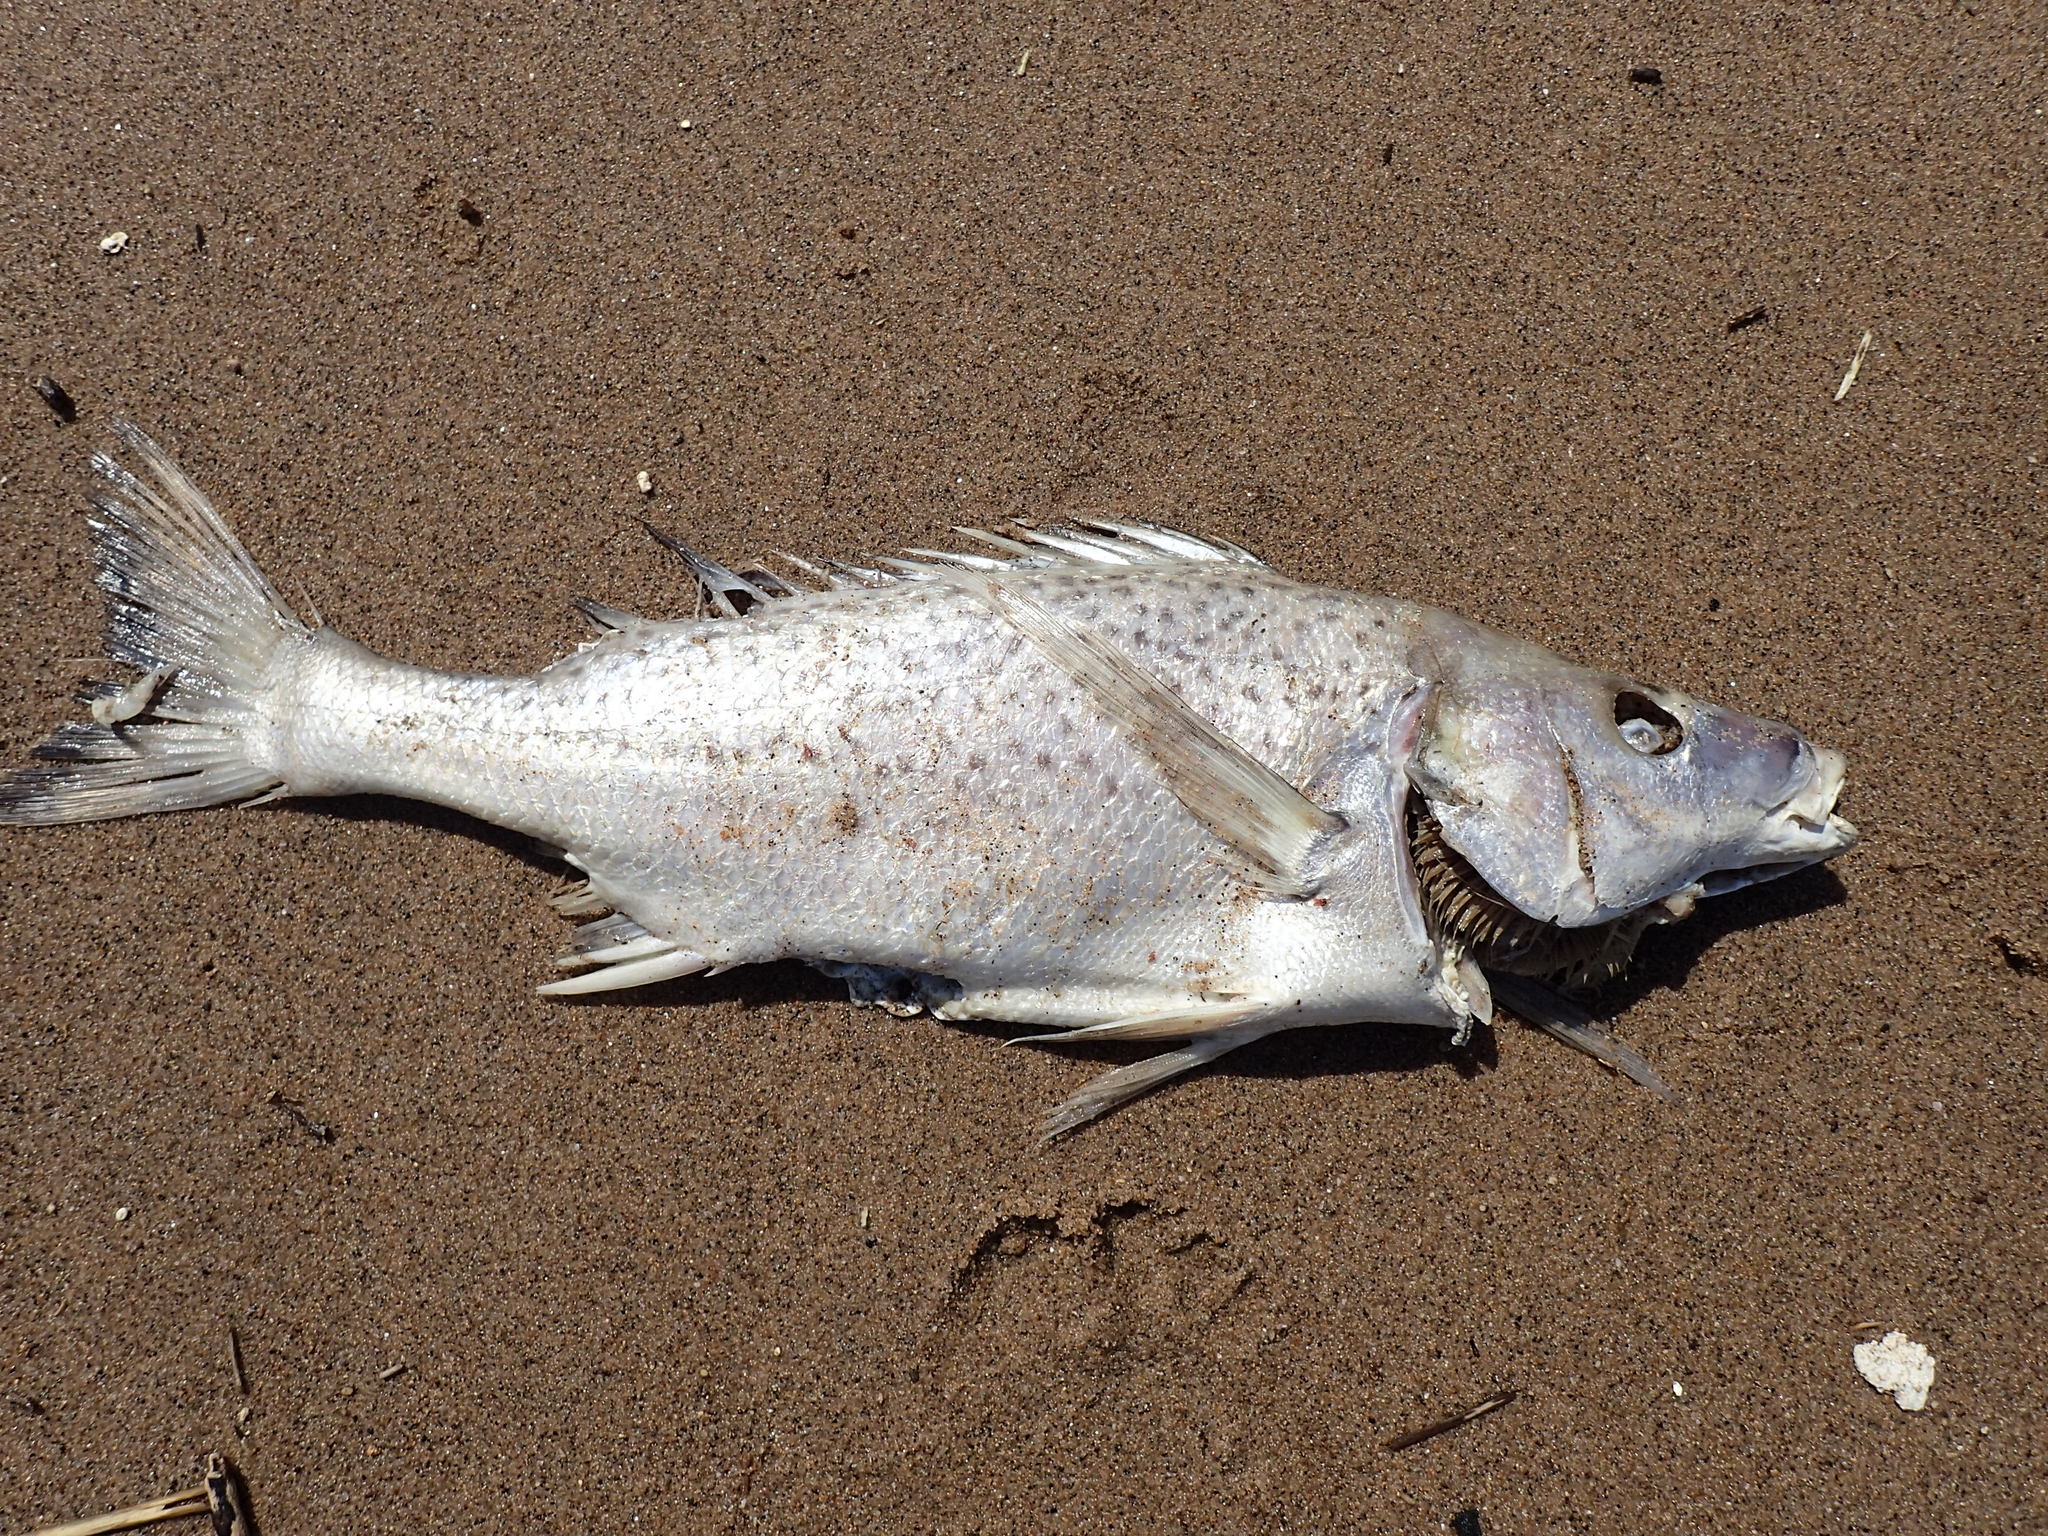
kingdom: Animalia
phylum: Chordata
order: Perciformes
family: Haemulidae
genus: Pomadasys
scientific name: Pomadasys commersonnii
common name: Smallspotted grunter
